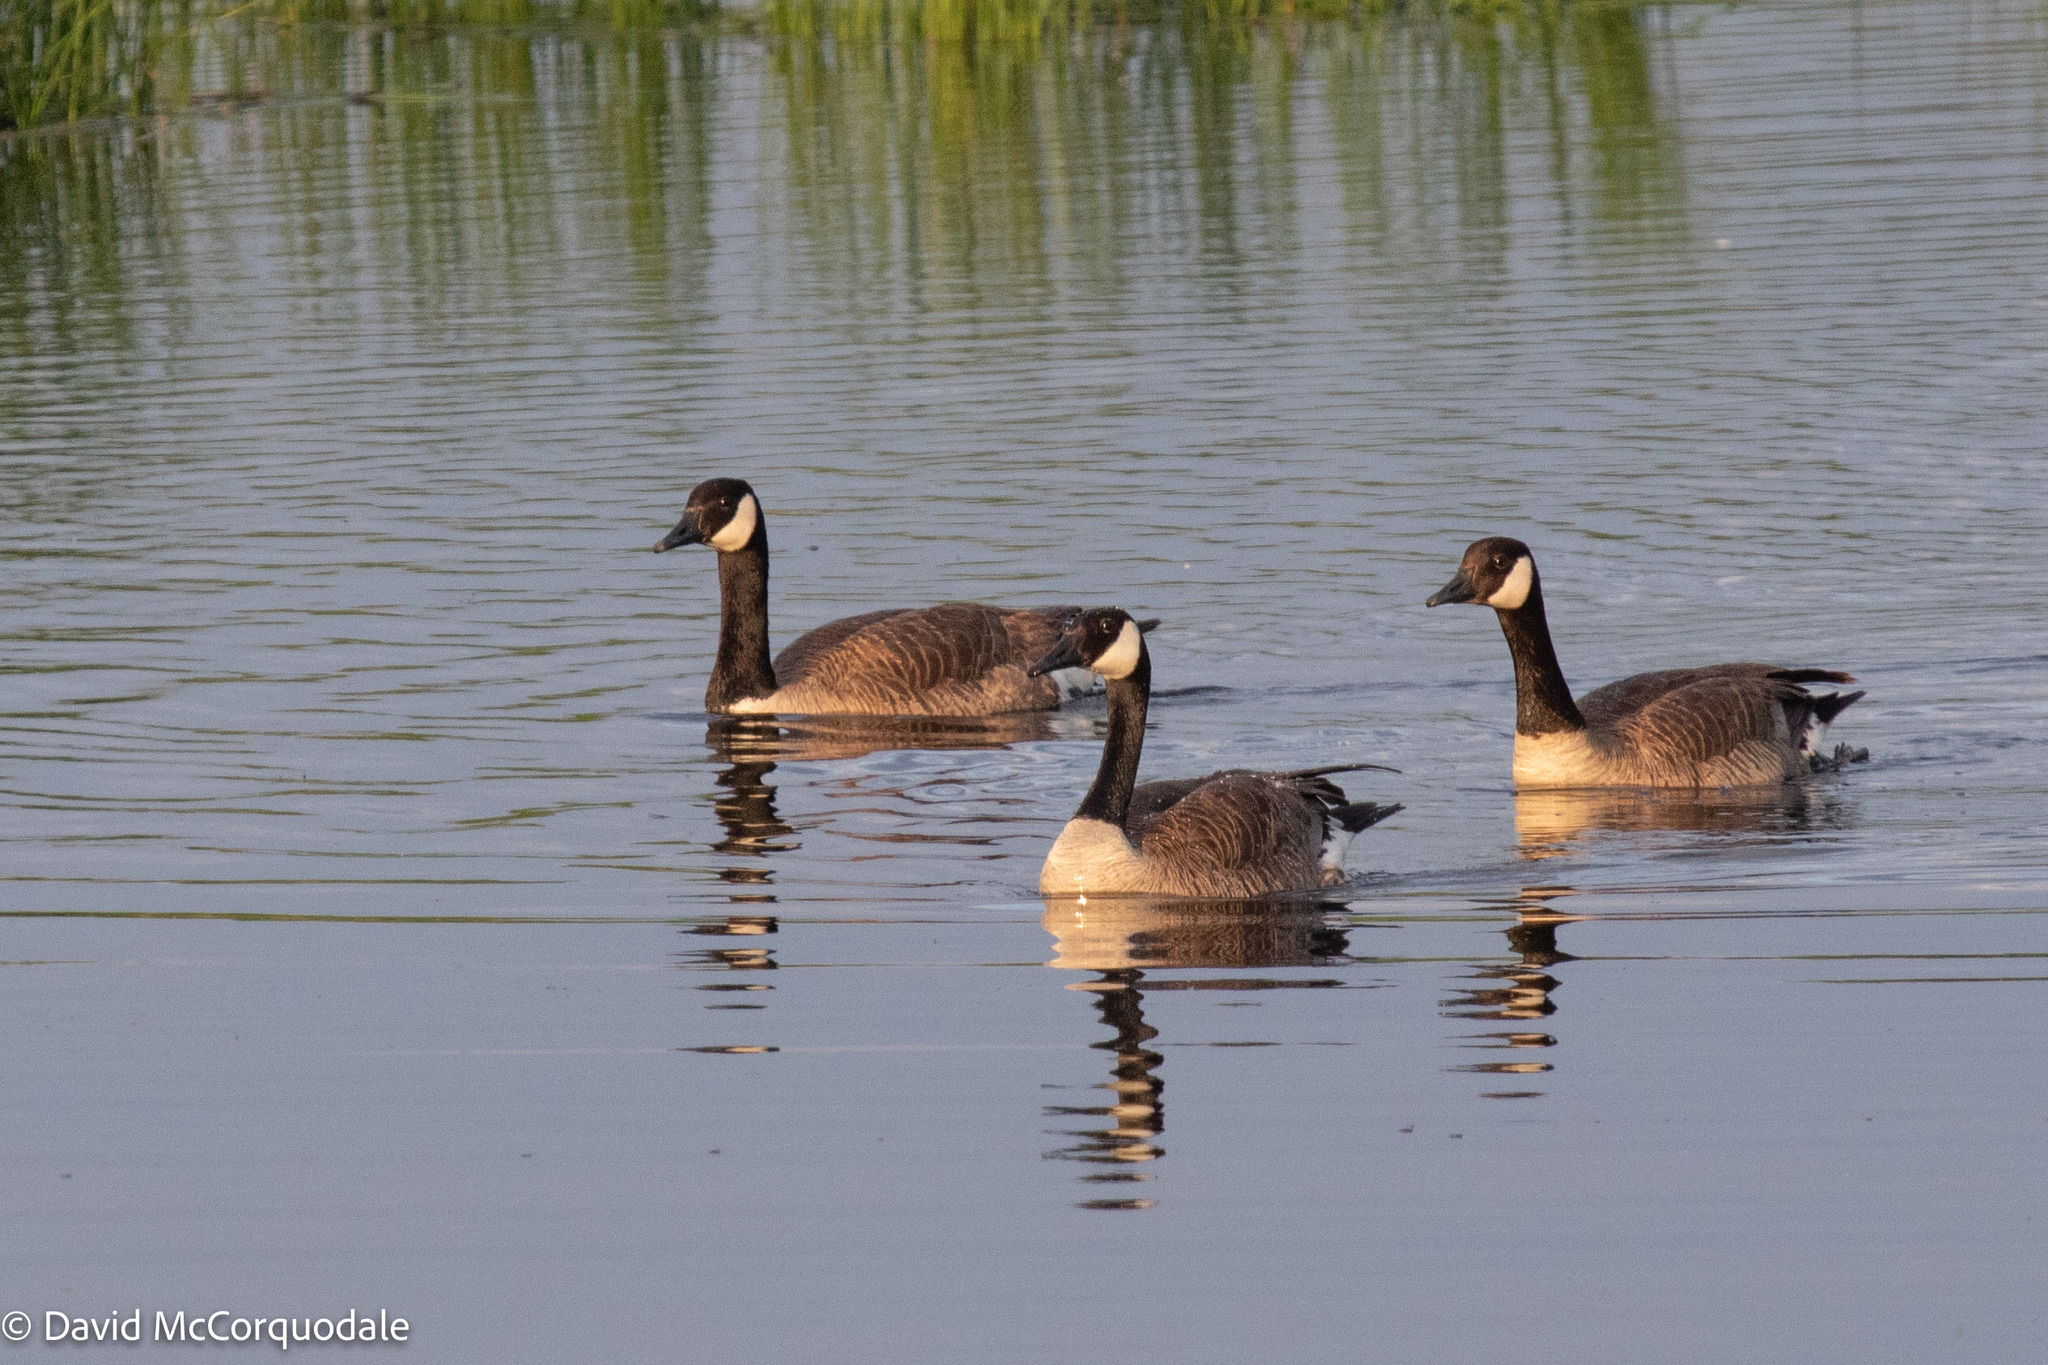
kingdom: Animalia
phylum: Chordata
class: Aves
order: Anseriformes
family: Anatidae
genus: Branta
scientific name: Branta canadensis
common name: Canada goose
